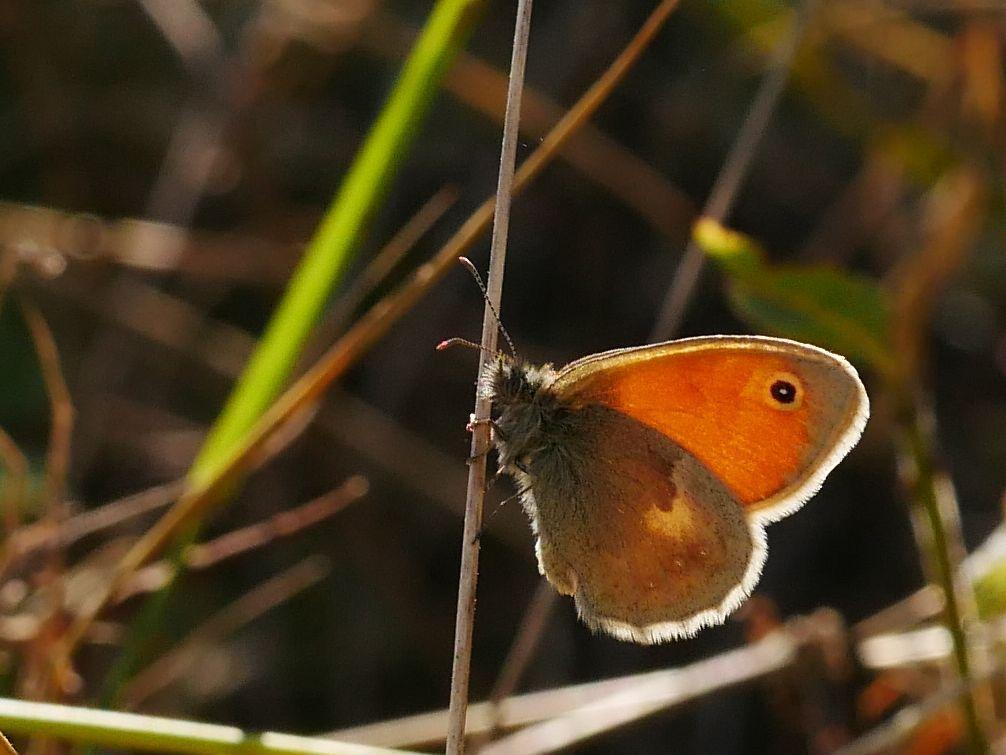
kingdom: Animalia
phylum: Arthropoda
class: Insecta
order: Lepidoptera
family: Nymphalidae
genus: Coenonympha
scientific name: Coenonympha pamphilus
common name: Small heath
